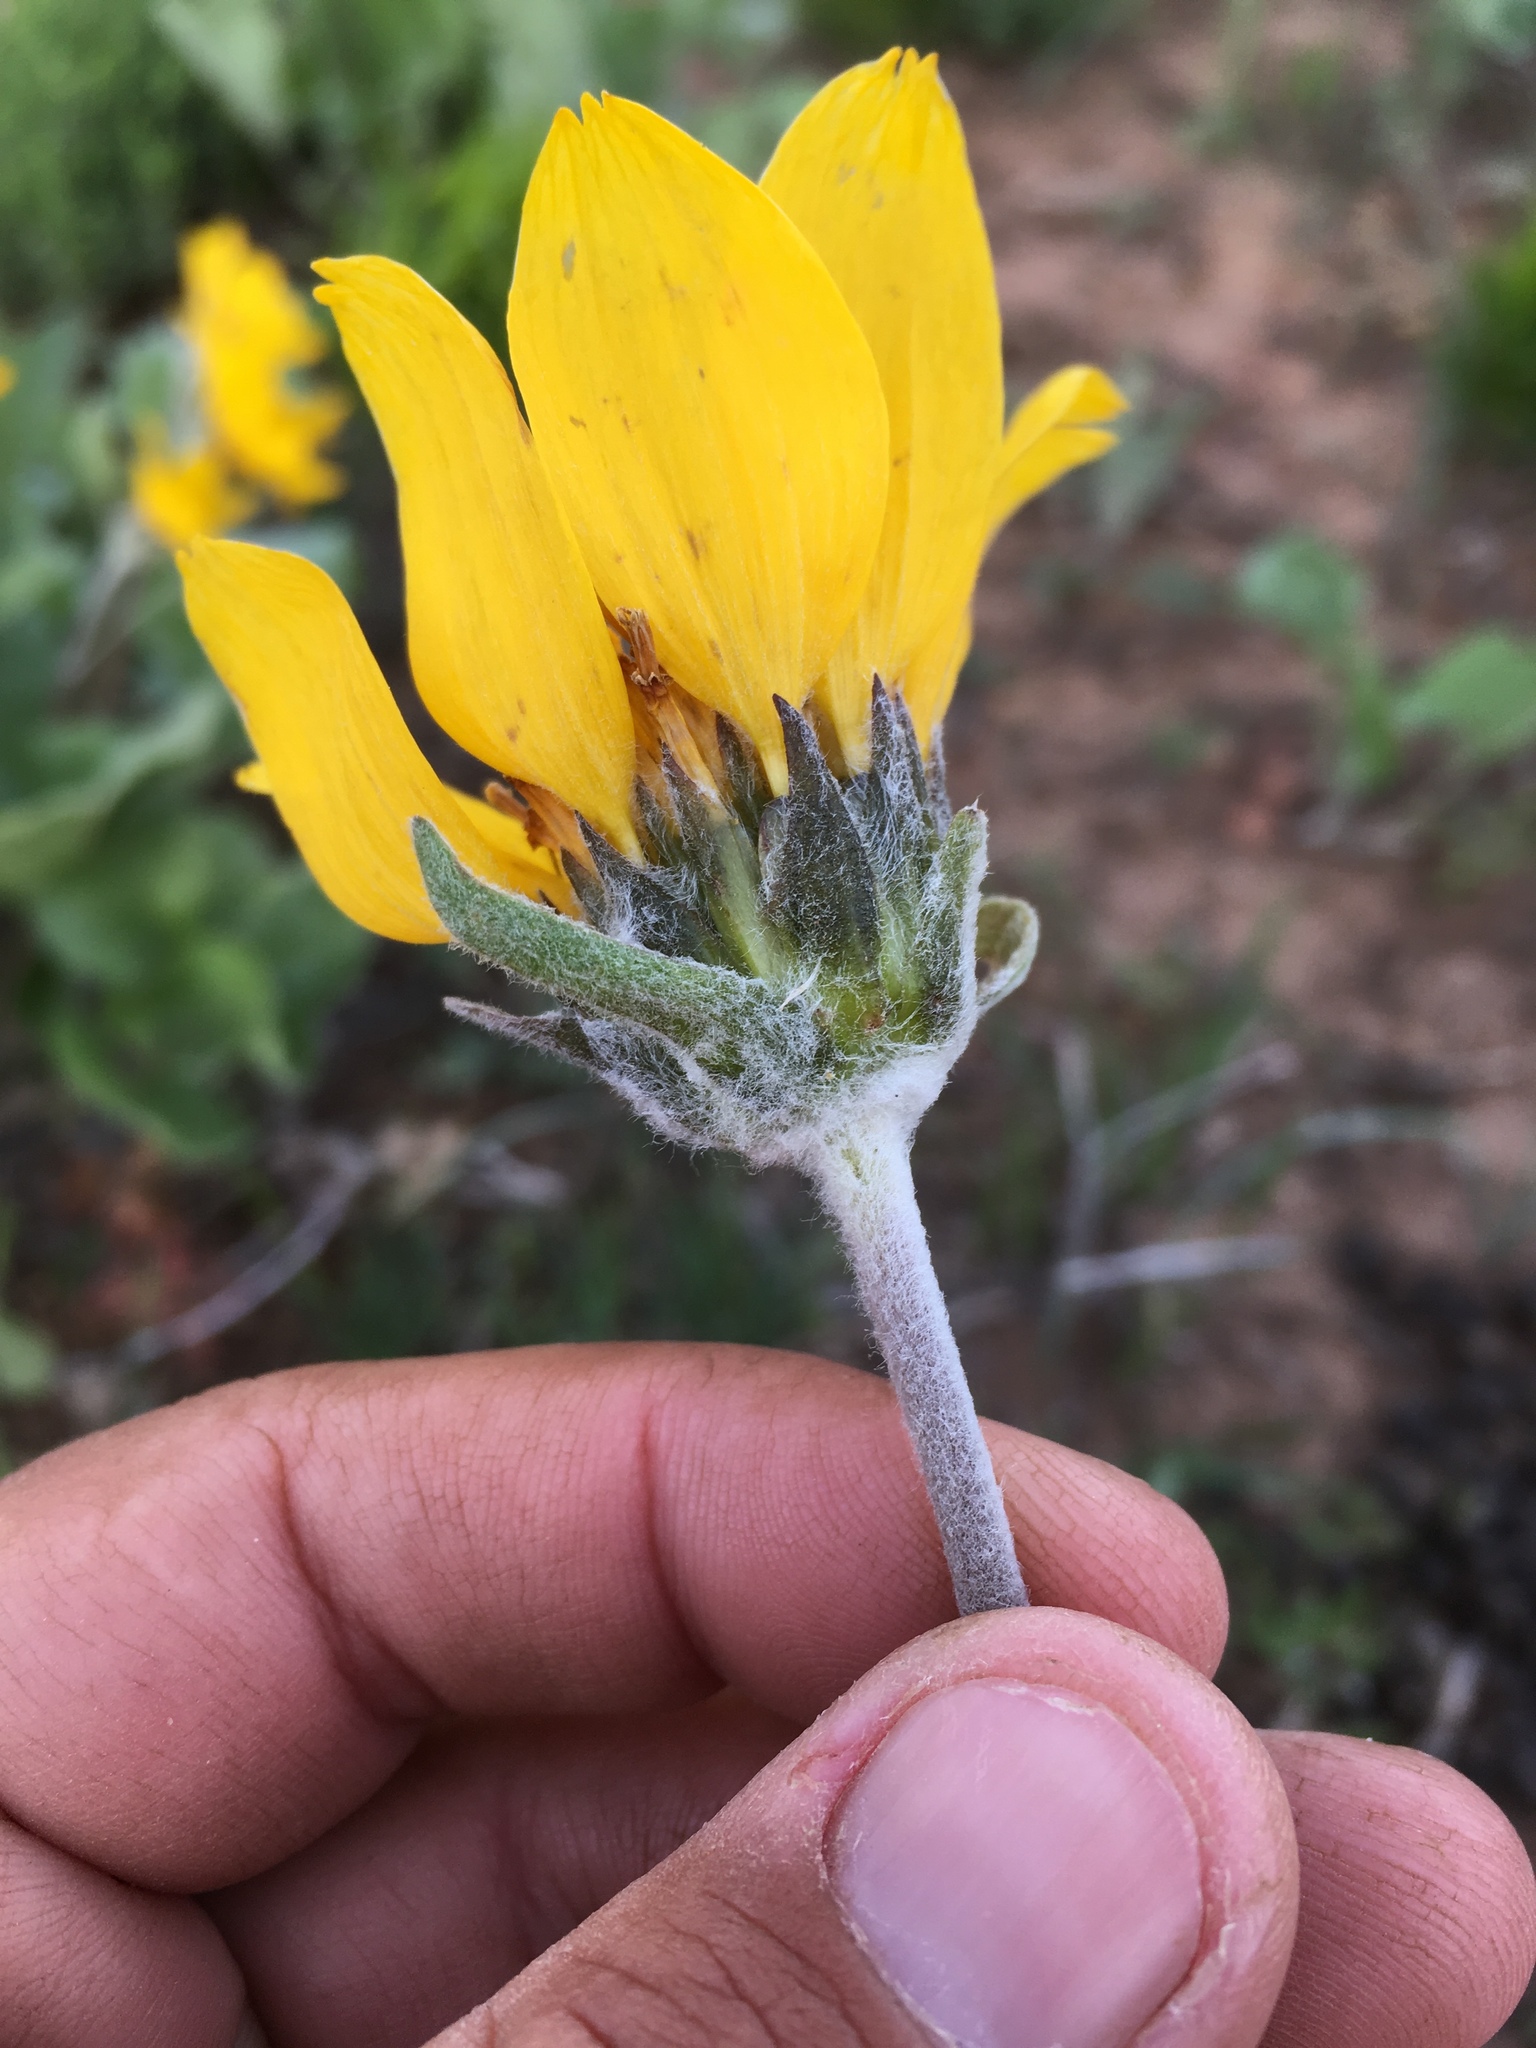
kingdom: Plantae
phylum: Tracheophyta
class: Magnoliopsida
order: Asterales
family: Asteraceae
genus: Wyethia
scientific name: Wyethia sagittata
